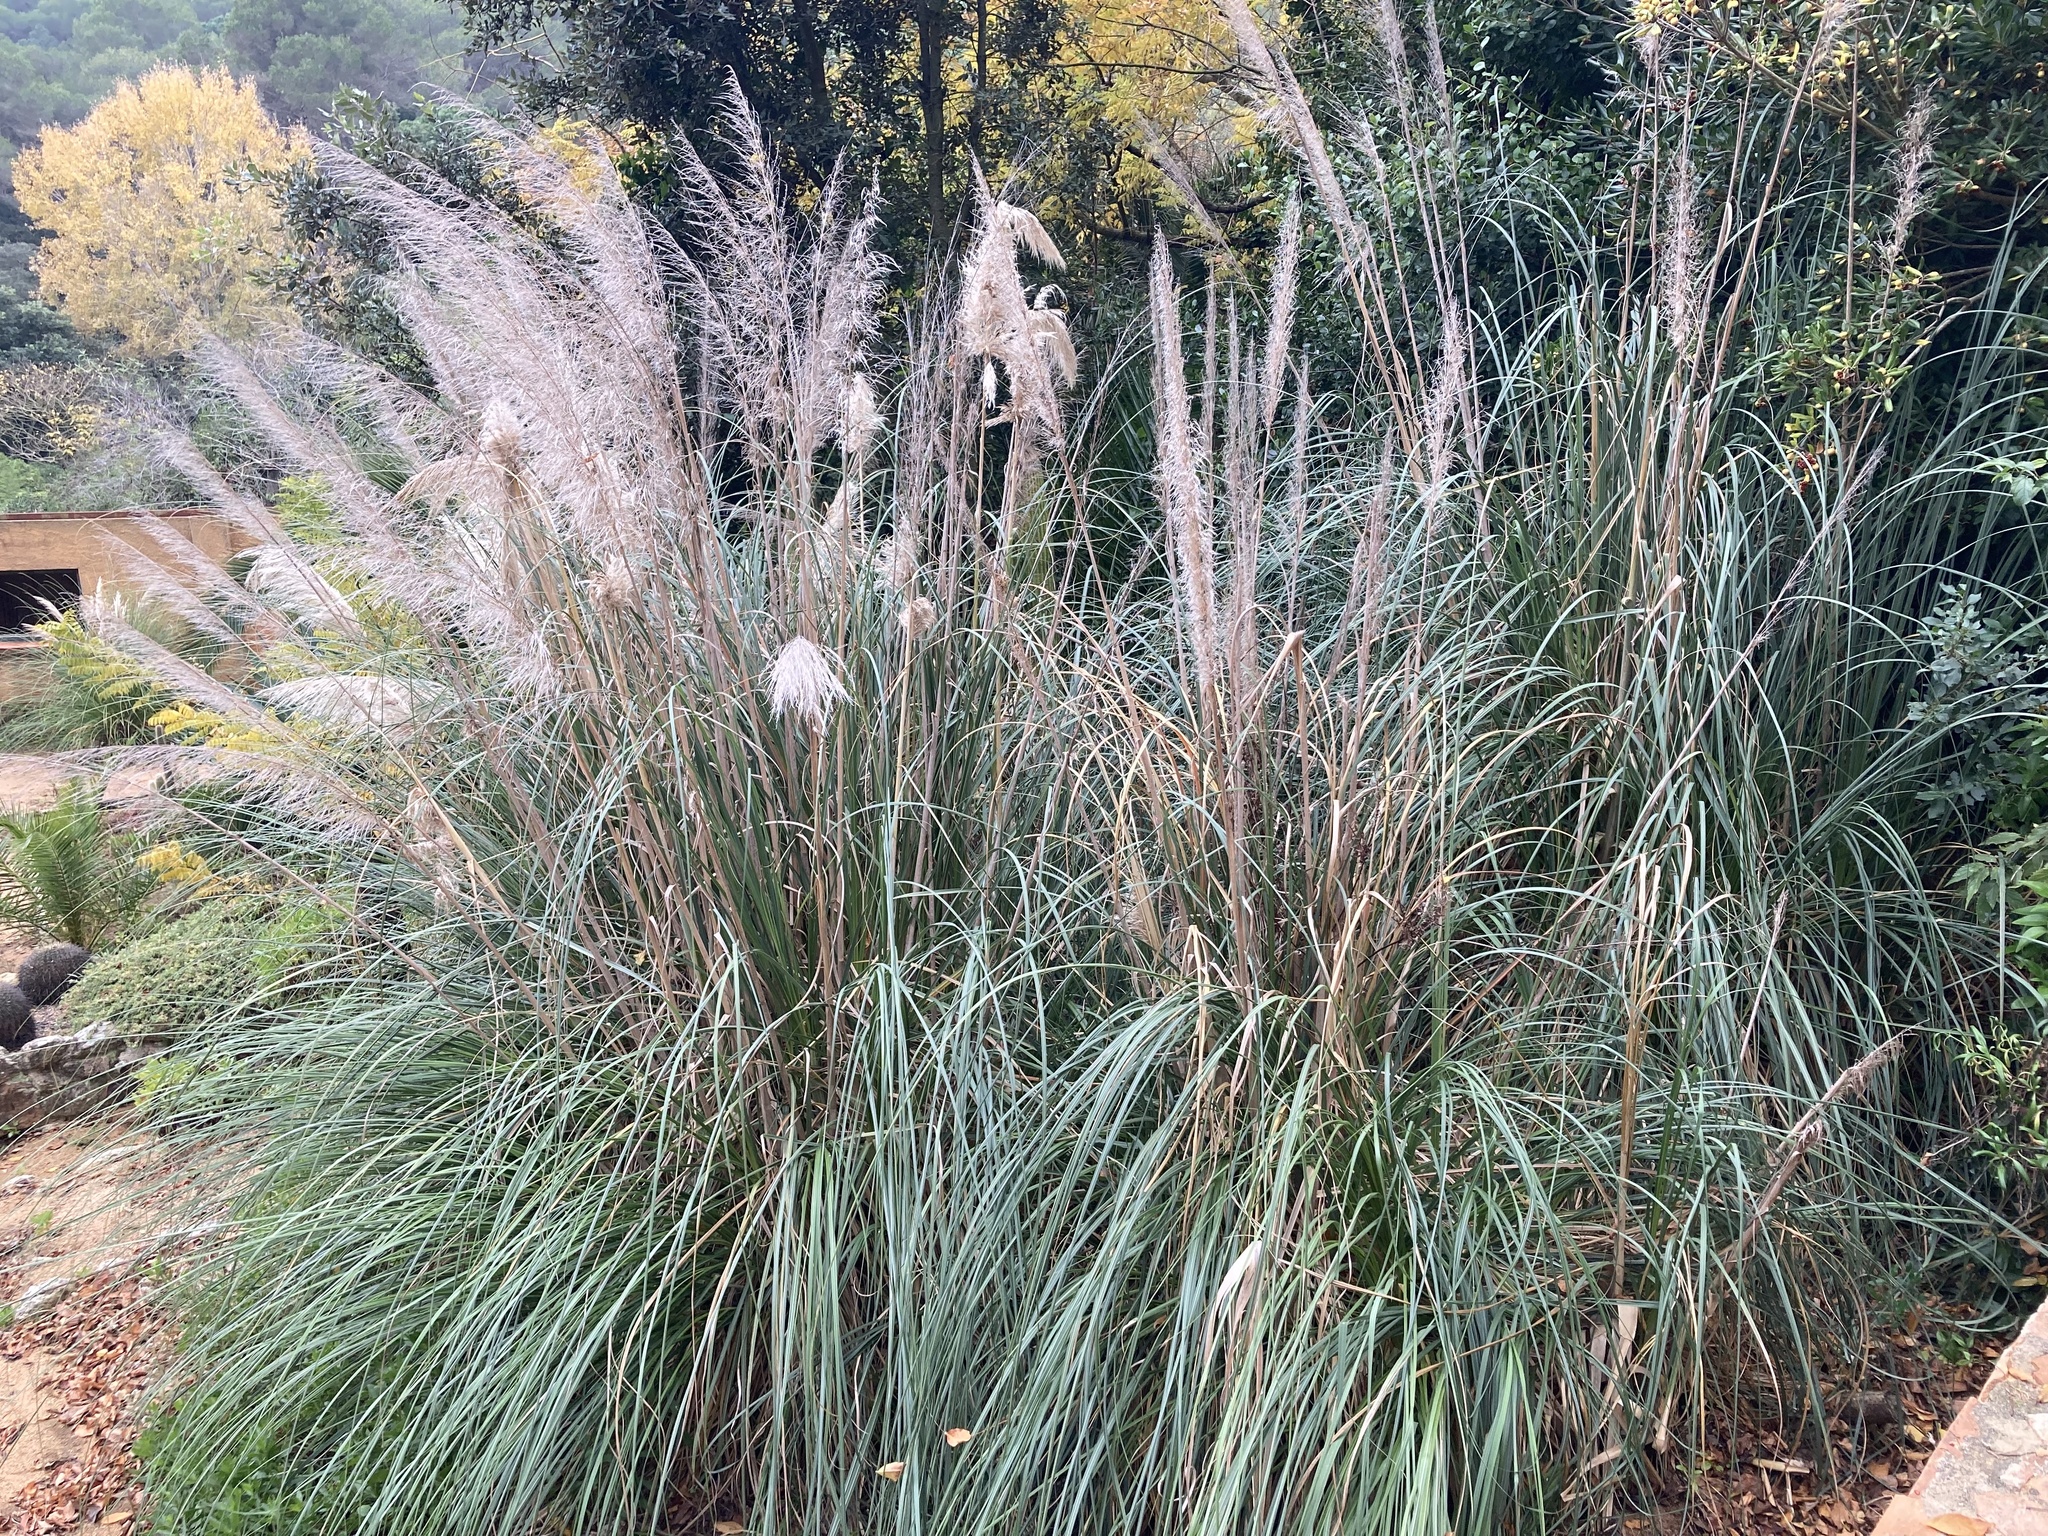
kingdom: Plantae
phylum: Tracheophyta
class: Liliopsida
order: Poales
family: Poaceae
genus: Cortaderia
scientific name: Cortaderia selloana
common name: Uruguayan pampas grass
